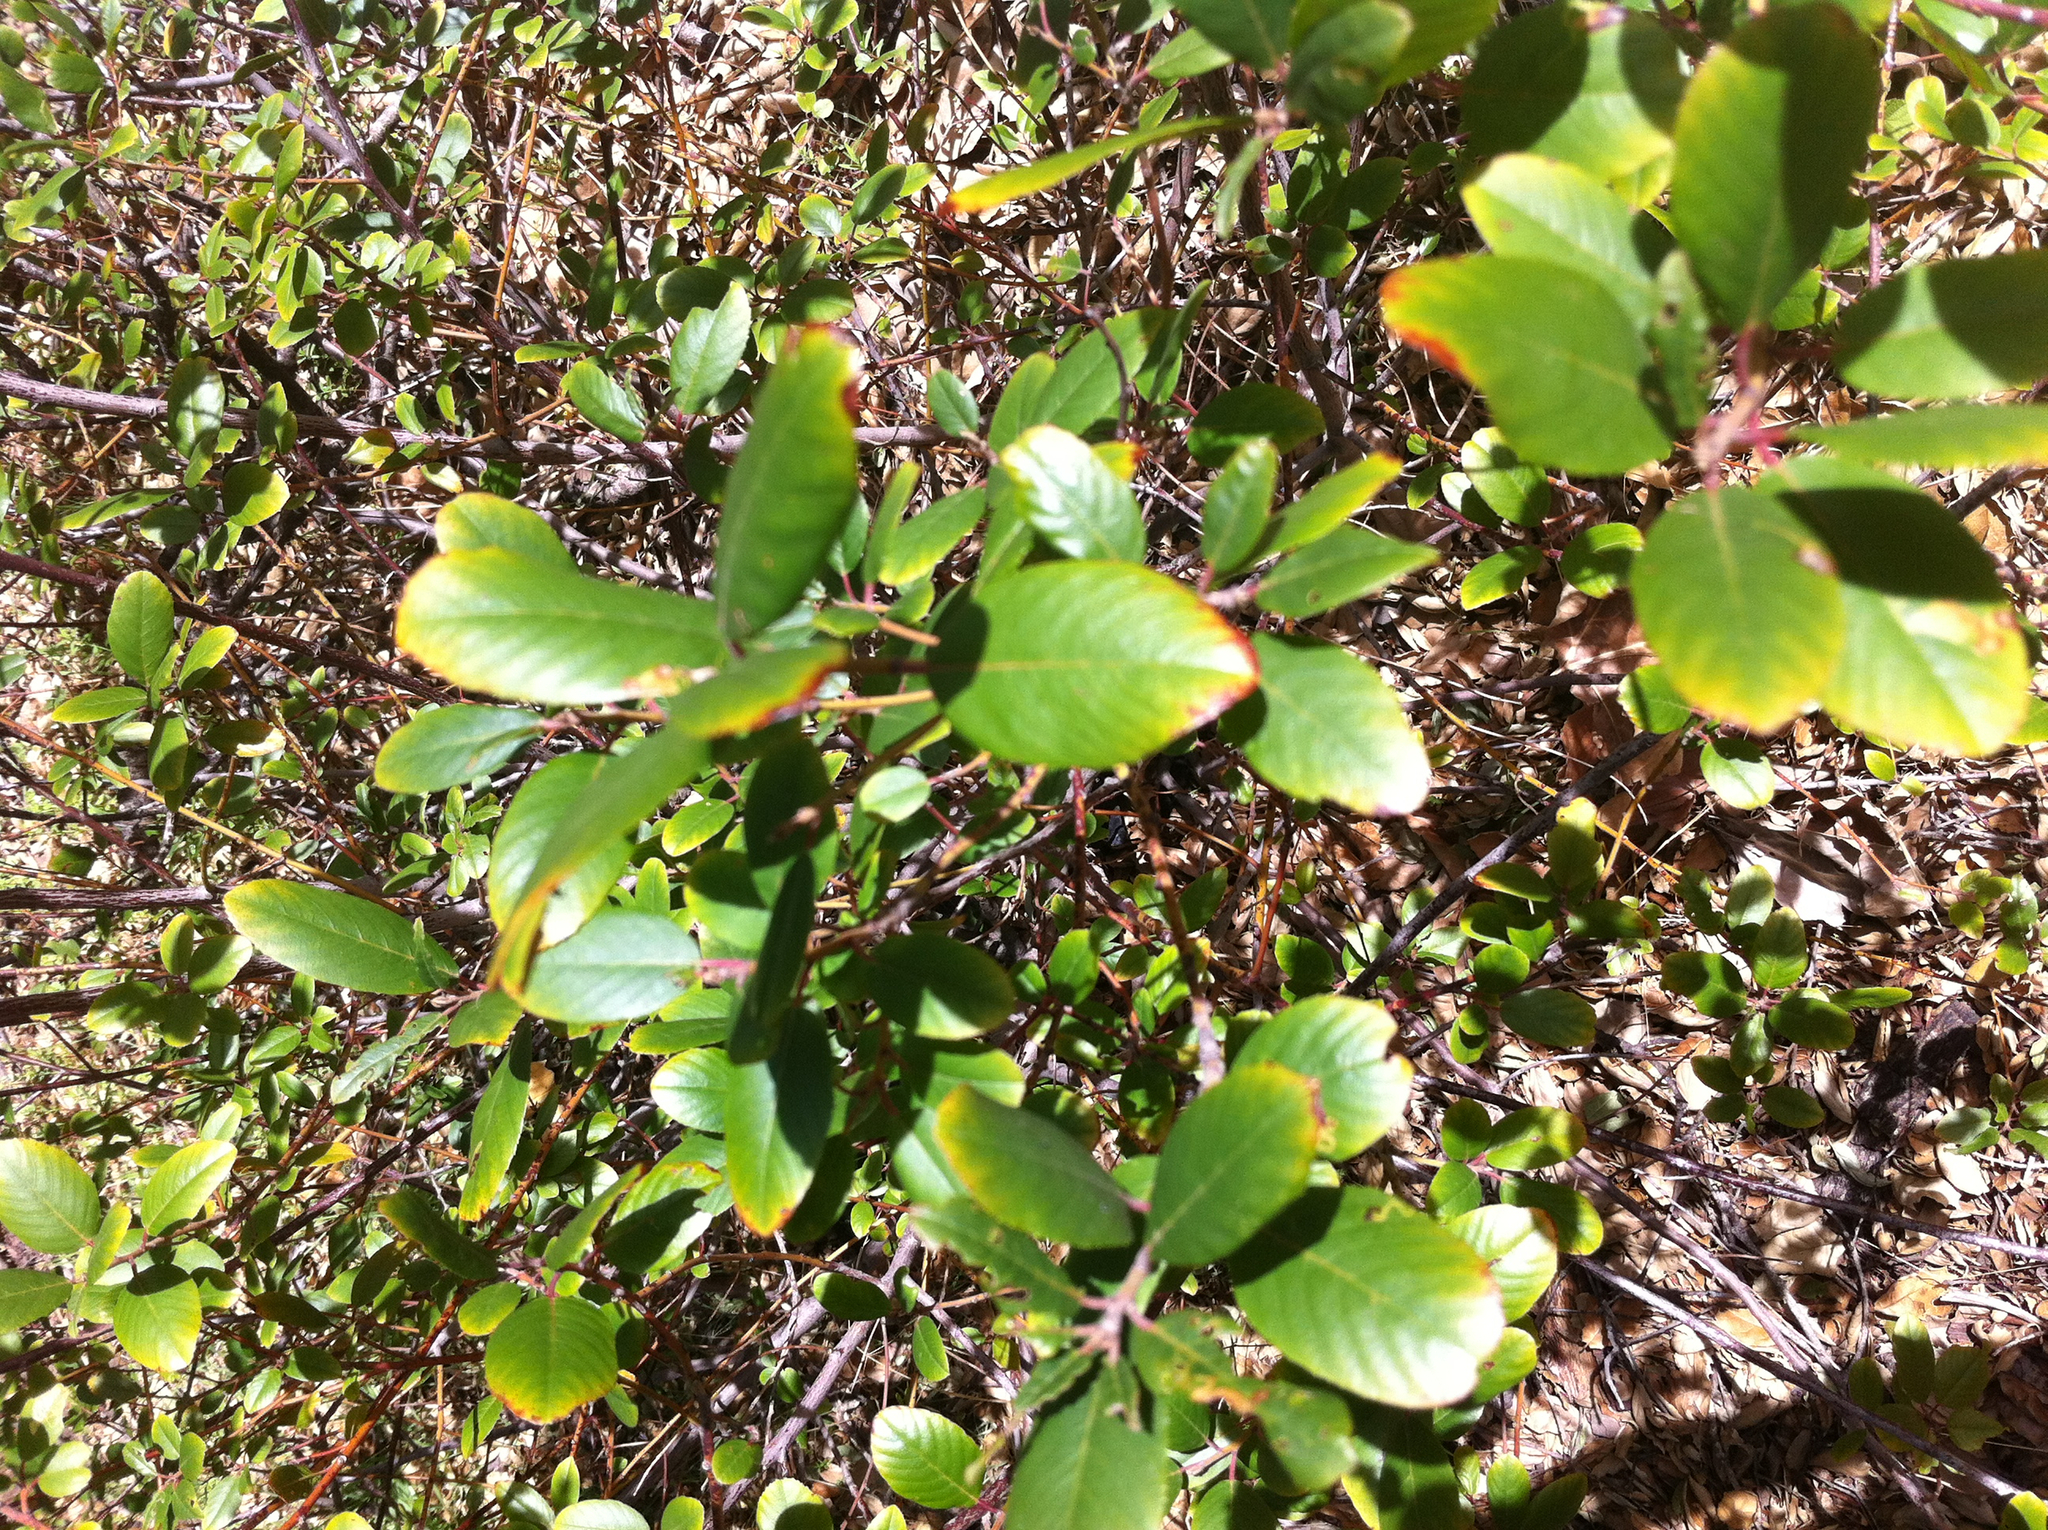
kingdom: Plantae
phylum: Tracheophyta
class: Magnoliopsida
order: Rosales
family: Rhamnaceae
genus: Frangula
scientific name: Frangula californica
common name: California buckthorn
